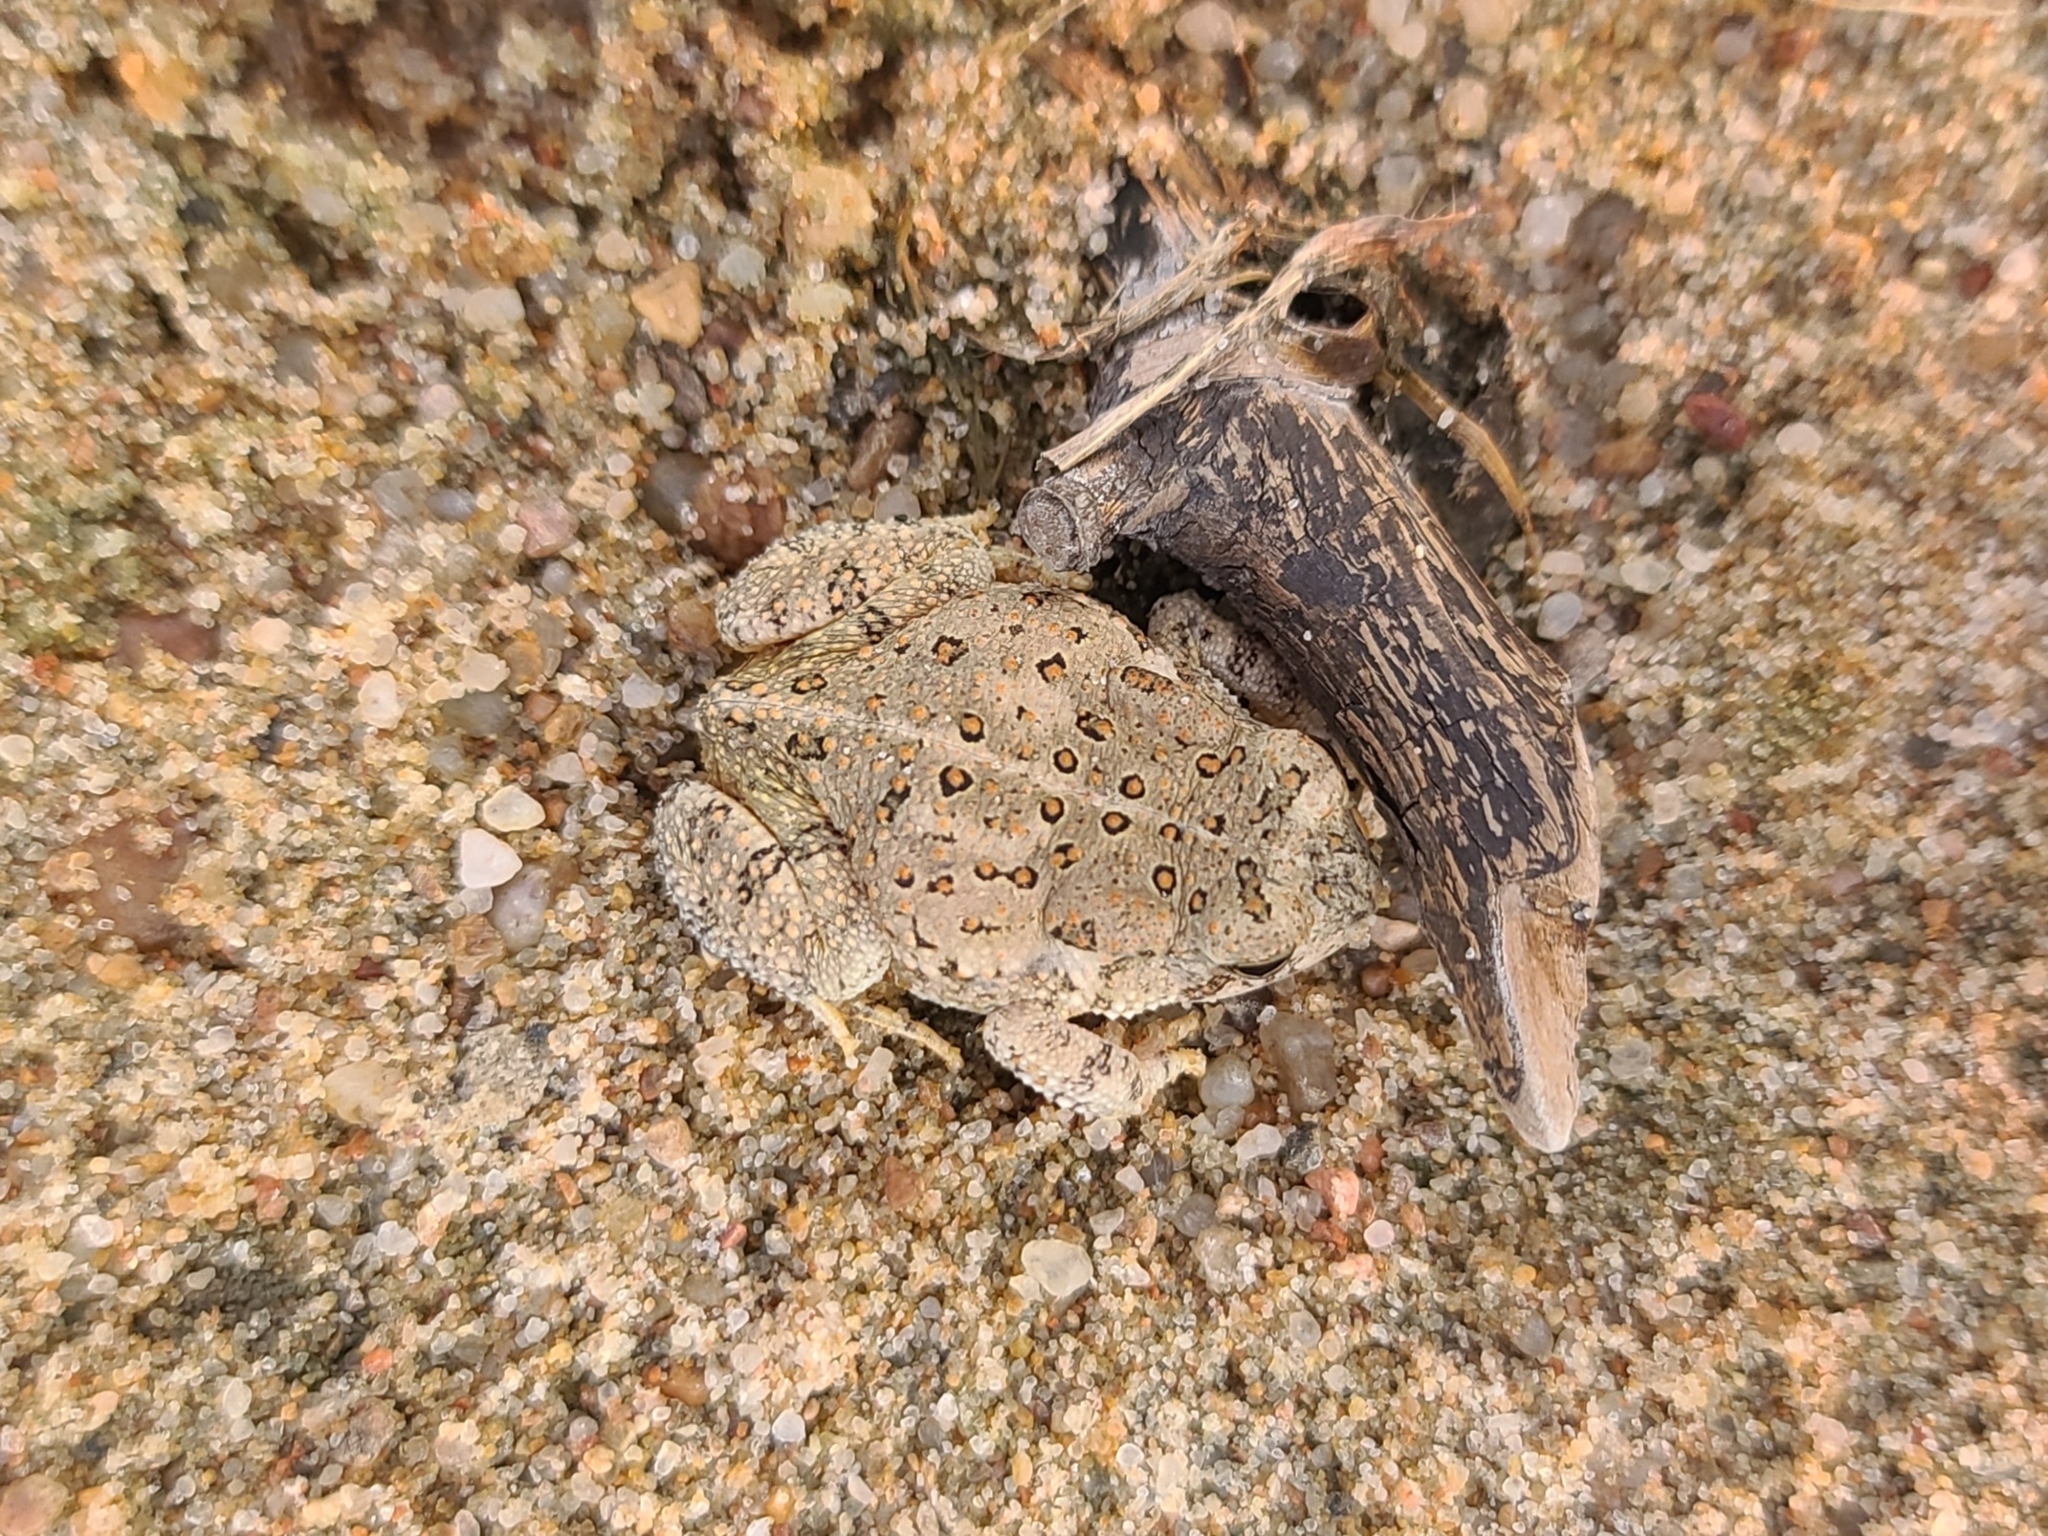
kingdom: Animalia
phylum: Chordata
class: Amphibia
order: Anura
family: Bufonidae
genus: Anaxyrus
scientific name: Anaxyrus woodhousii
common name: Woodhouse's toad
